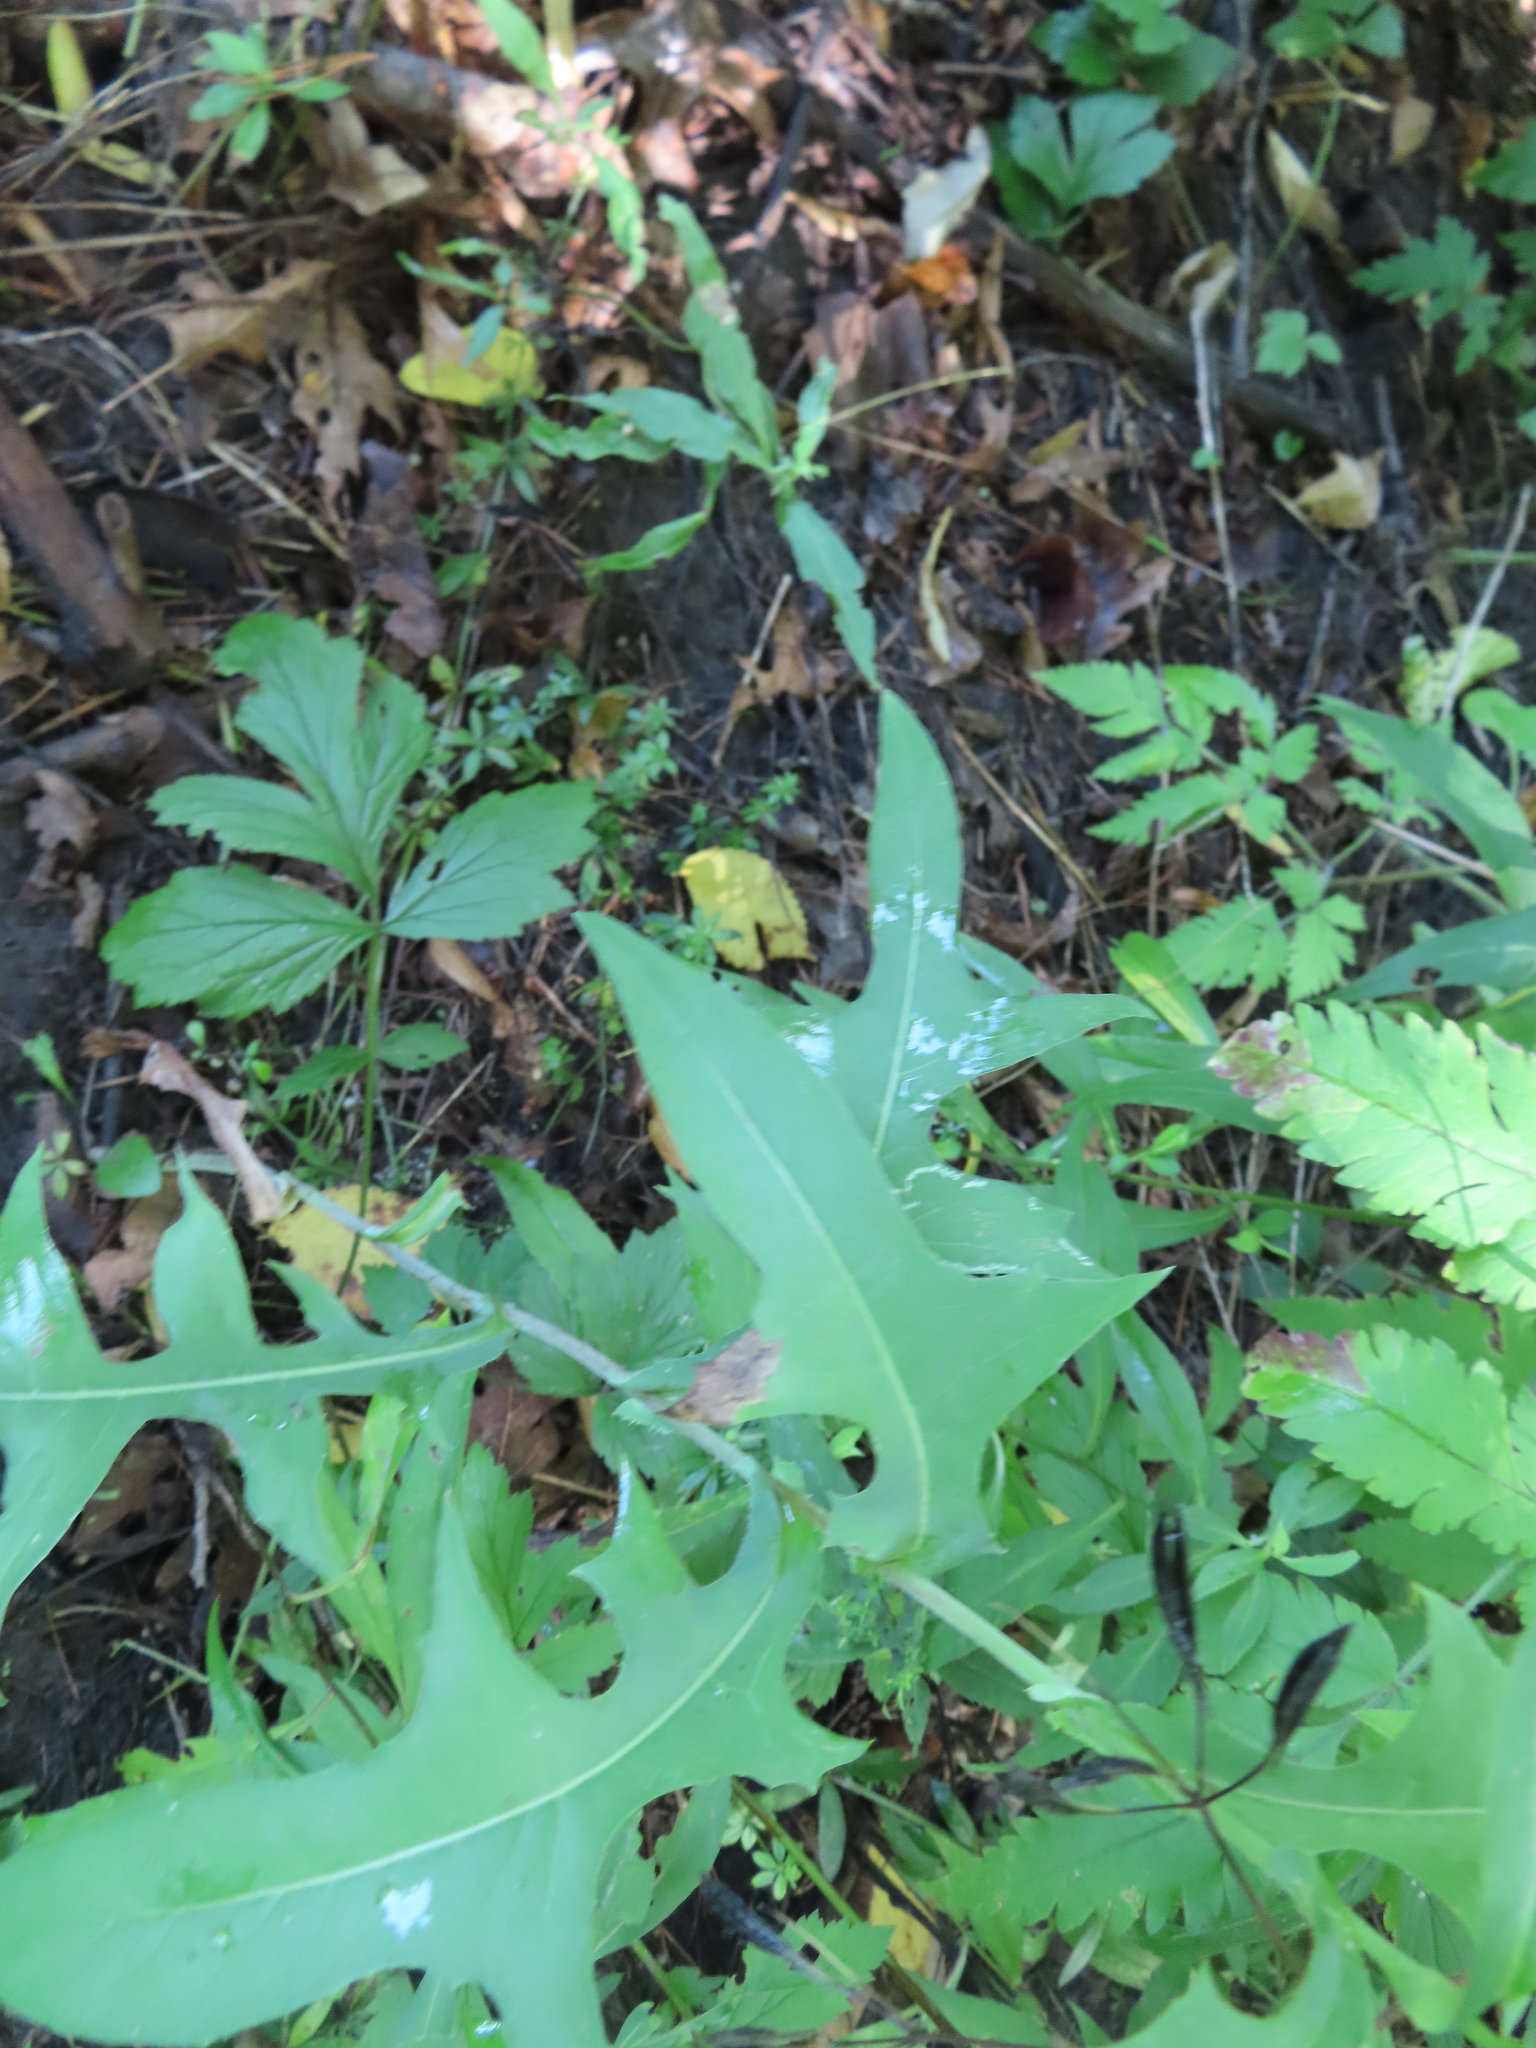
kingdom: Plantae
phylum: Tracheophyta
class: Magnoliopsida
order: Asterales
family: Asteraceae
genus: Lactuca
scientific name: Lactuca canadensis
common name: Canada lettuce
